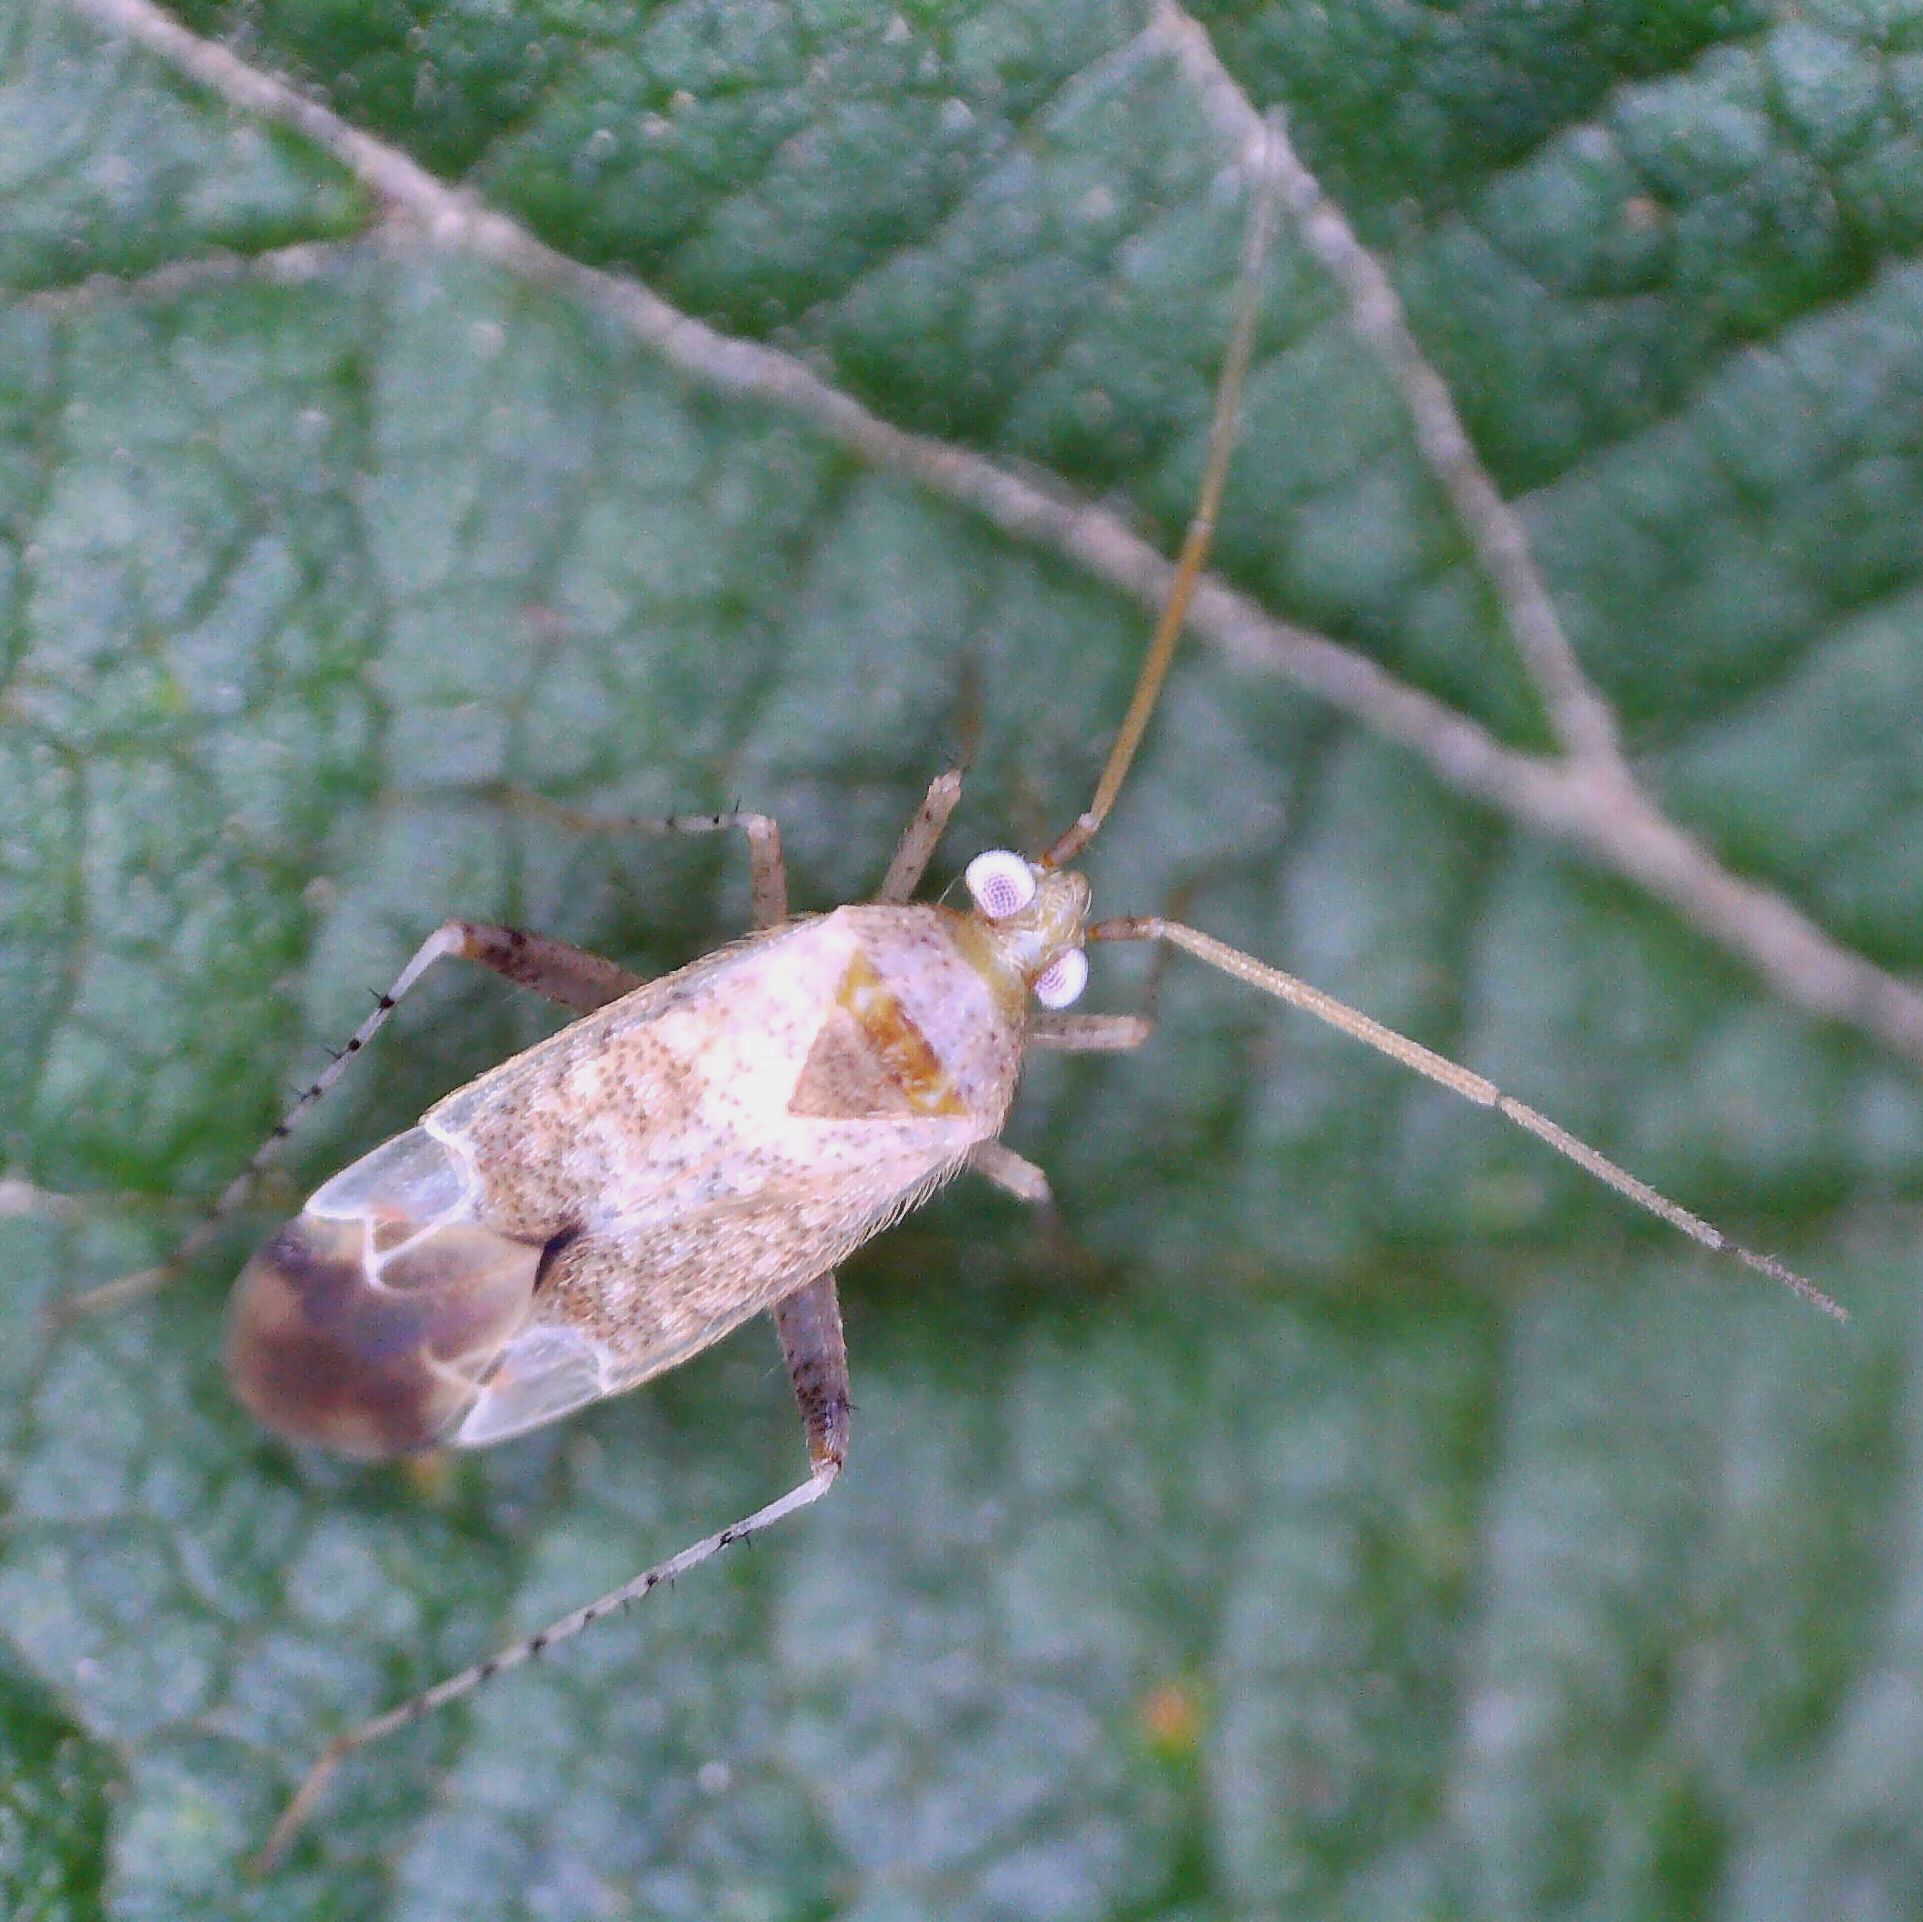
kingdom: Animalia
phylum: Arthropoda
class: Insecta
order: Hemiptera
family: Miridae
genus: Compsidolon
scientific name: Compsidolon salicellum
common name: Plant bug
